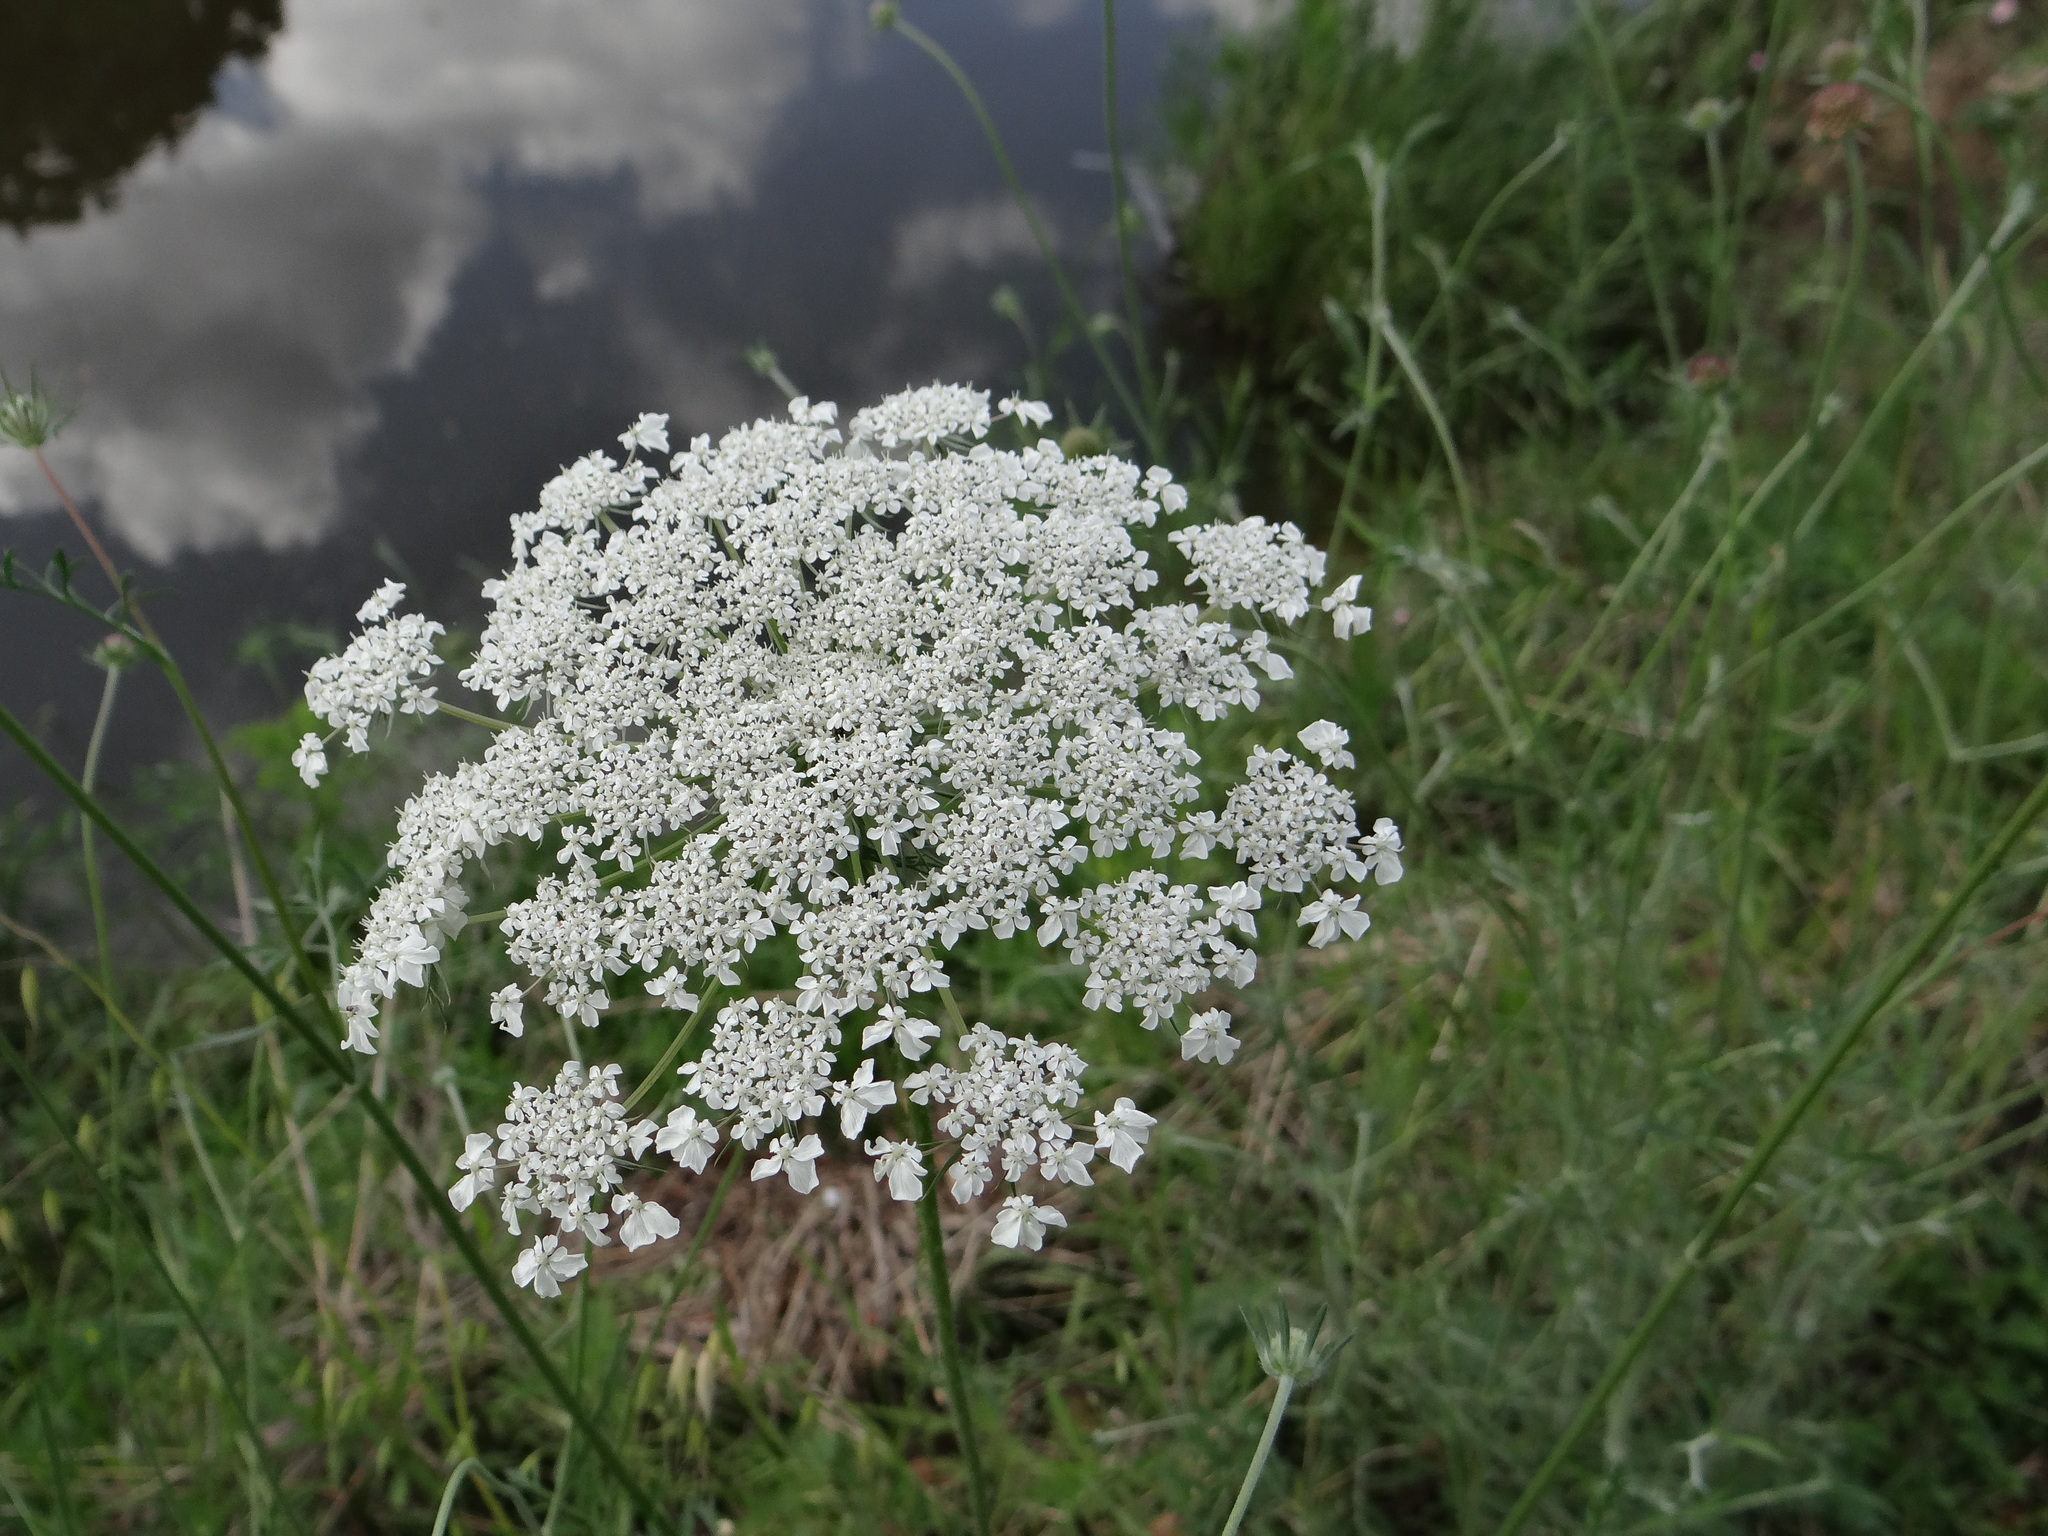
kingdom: Plantae
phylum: Tracheophyta
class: Magnoliopsida
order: Apiales
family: Apiaceae
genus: Daucus
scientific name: Daucus carota
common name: Wild carrot
